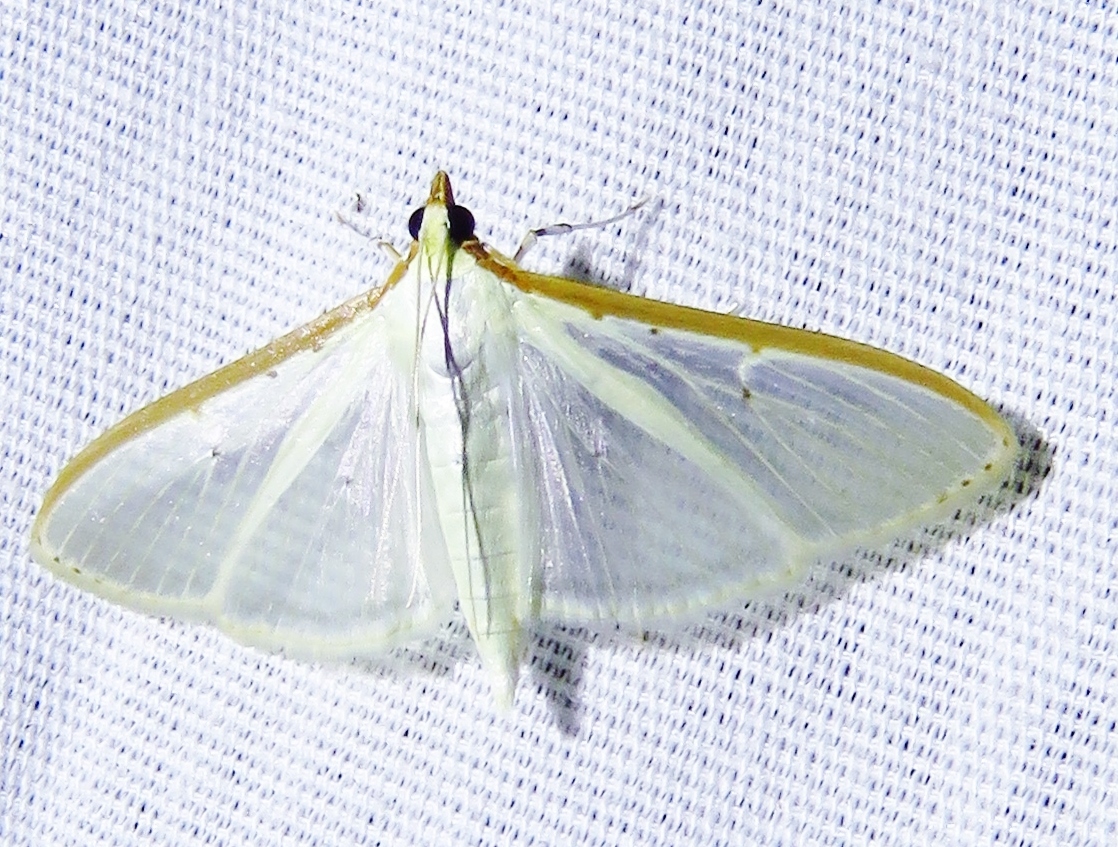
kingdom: Animalia
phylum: Arthropoda
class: Insecta
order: Lepidoptera
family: Crambidae
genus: Palpita
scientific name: Palpita quadristigmalis
